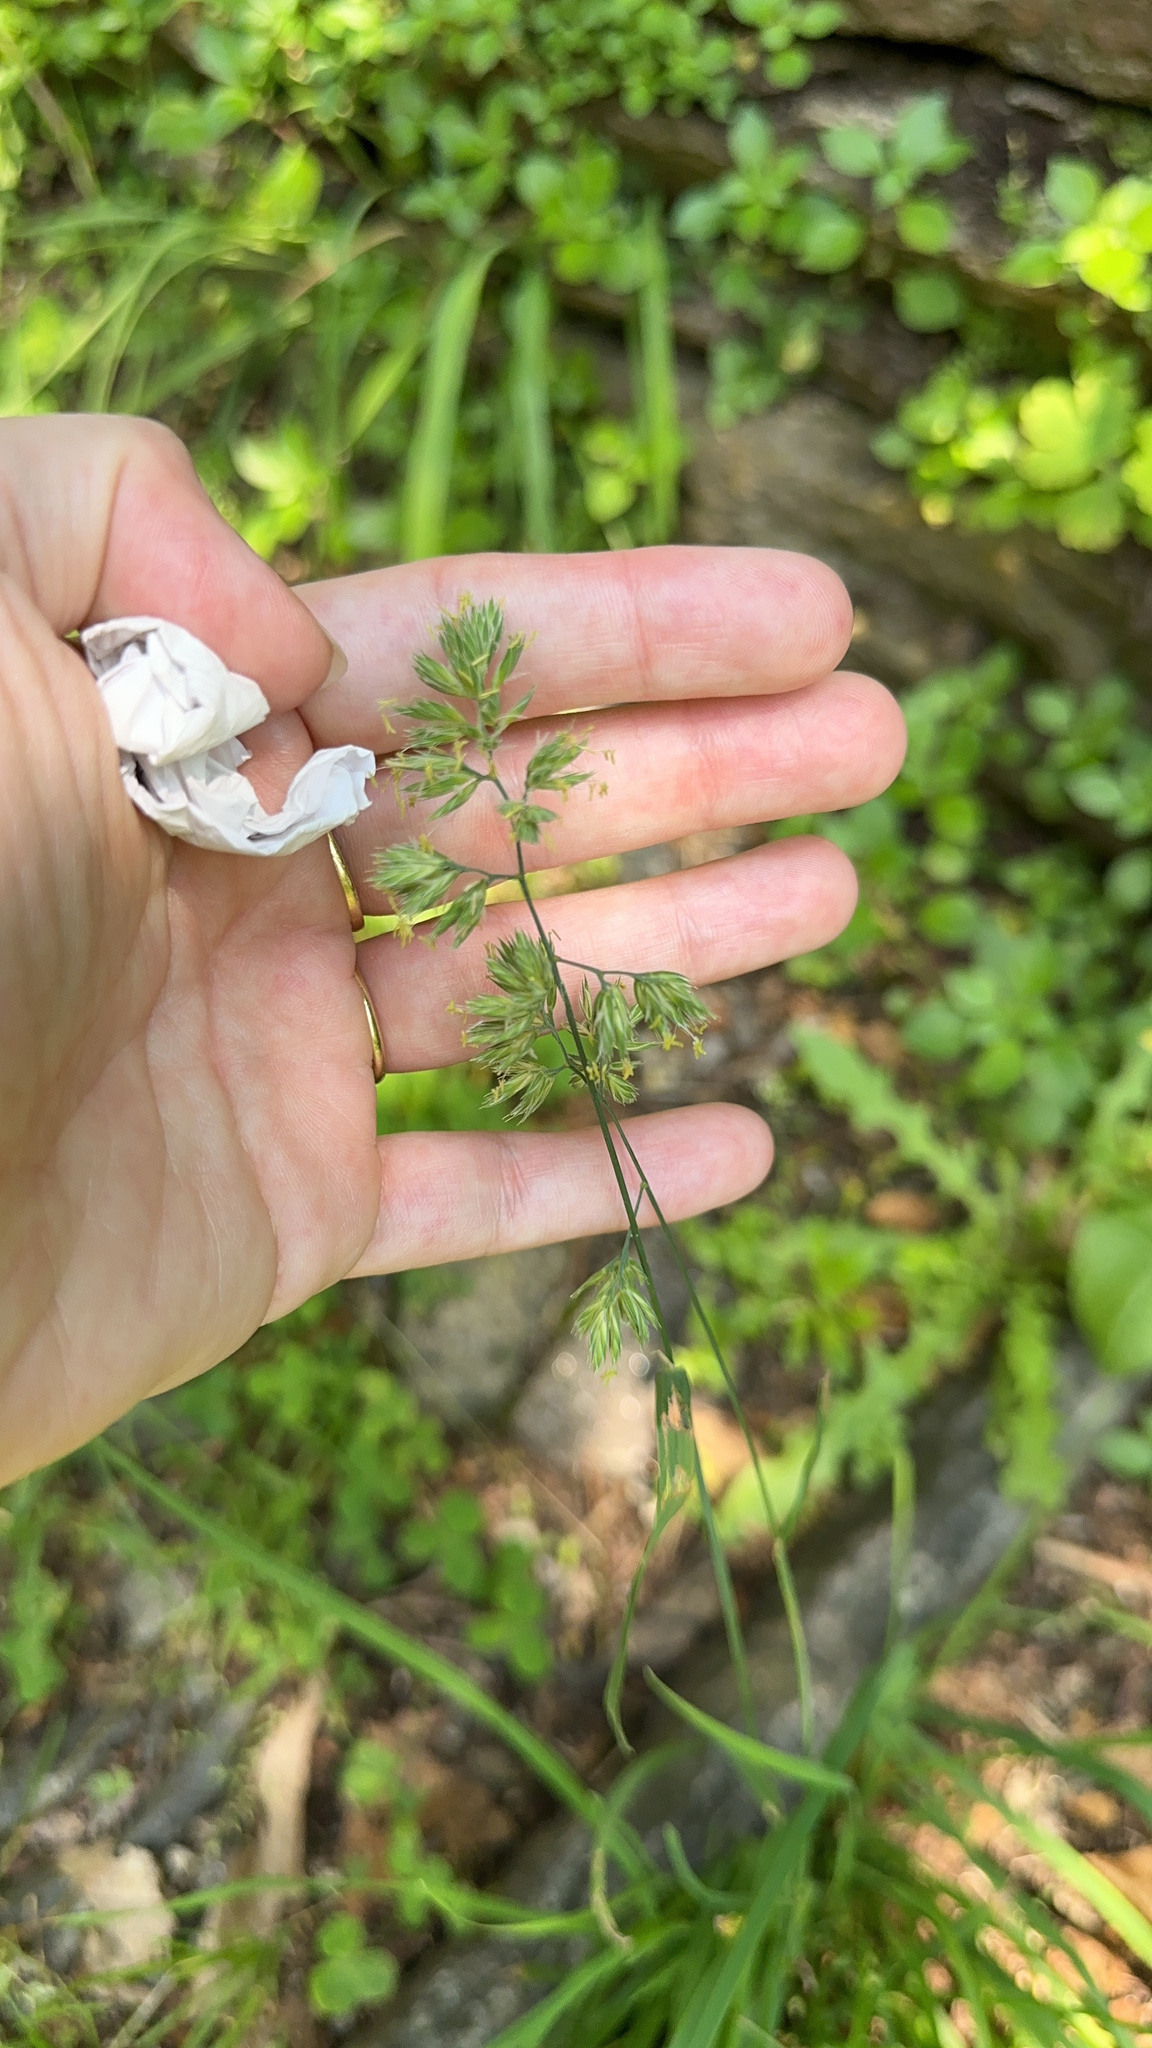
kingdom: Plantae
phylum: Tracheophyta
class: Liliopsida
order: Poales
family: Poaceae
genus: Dactylis
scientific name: Dactylis glomerata
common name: Orchardgrass
